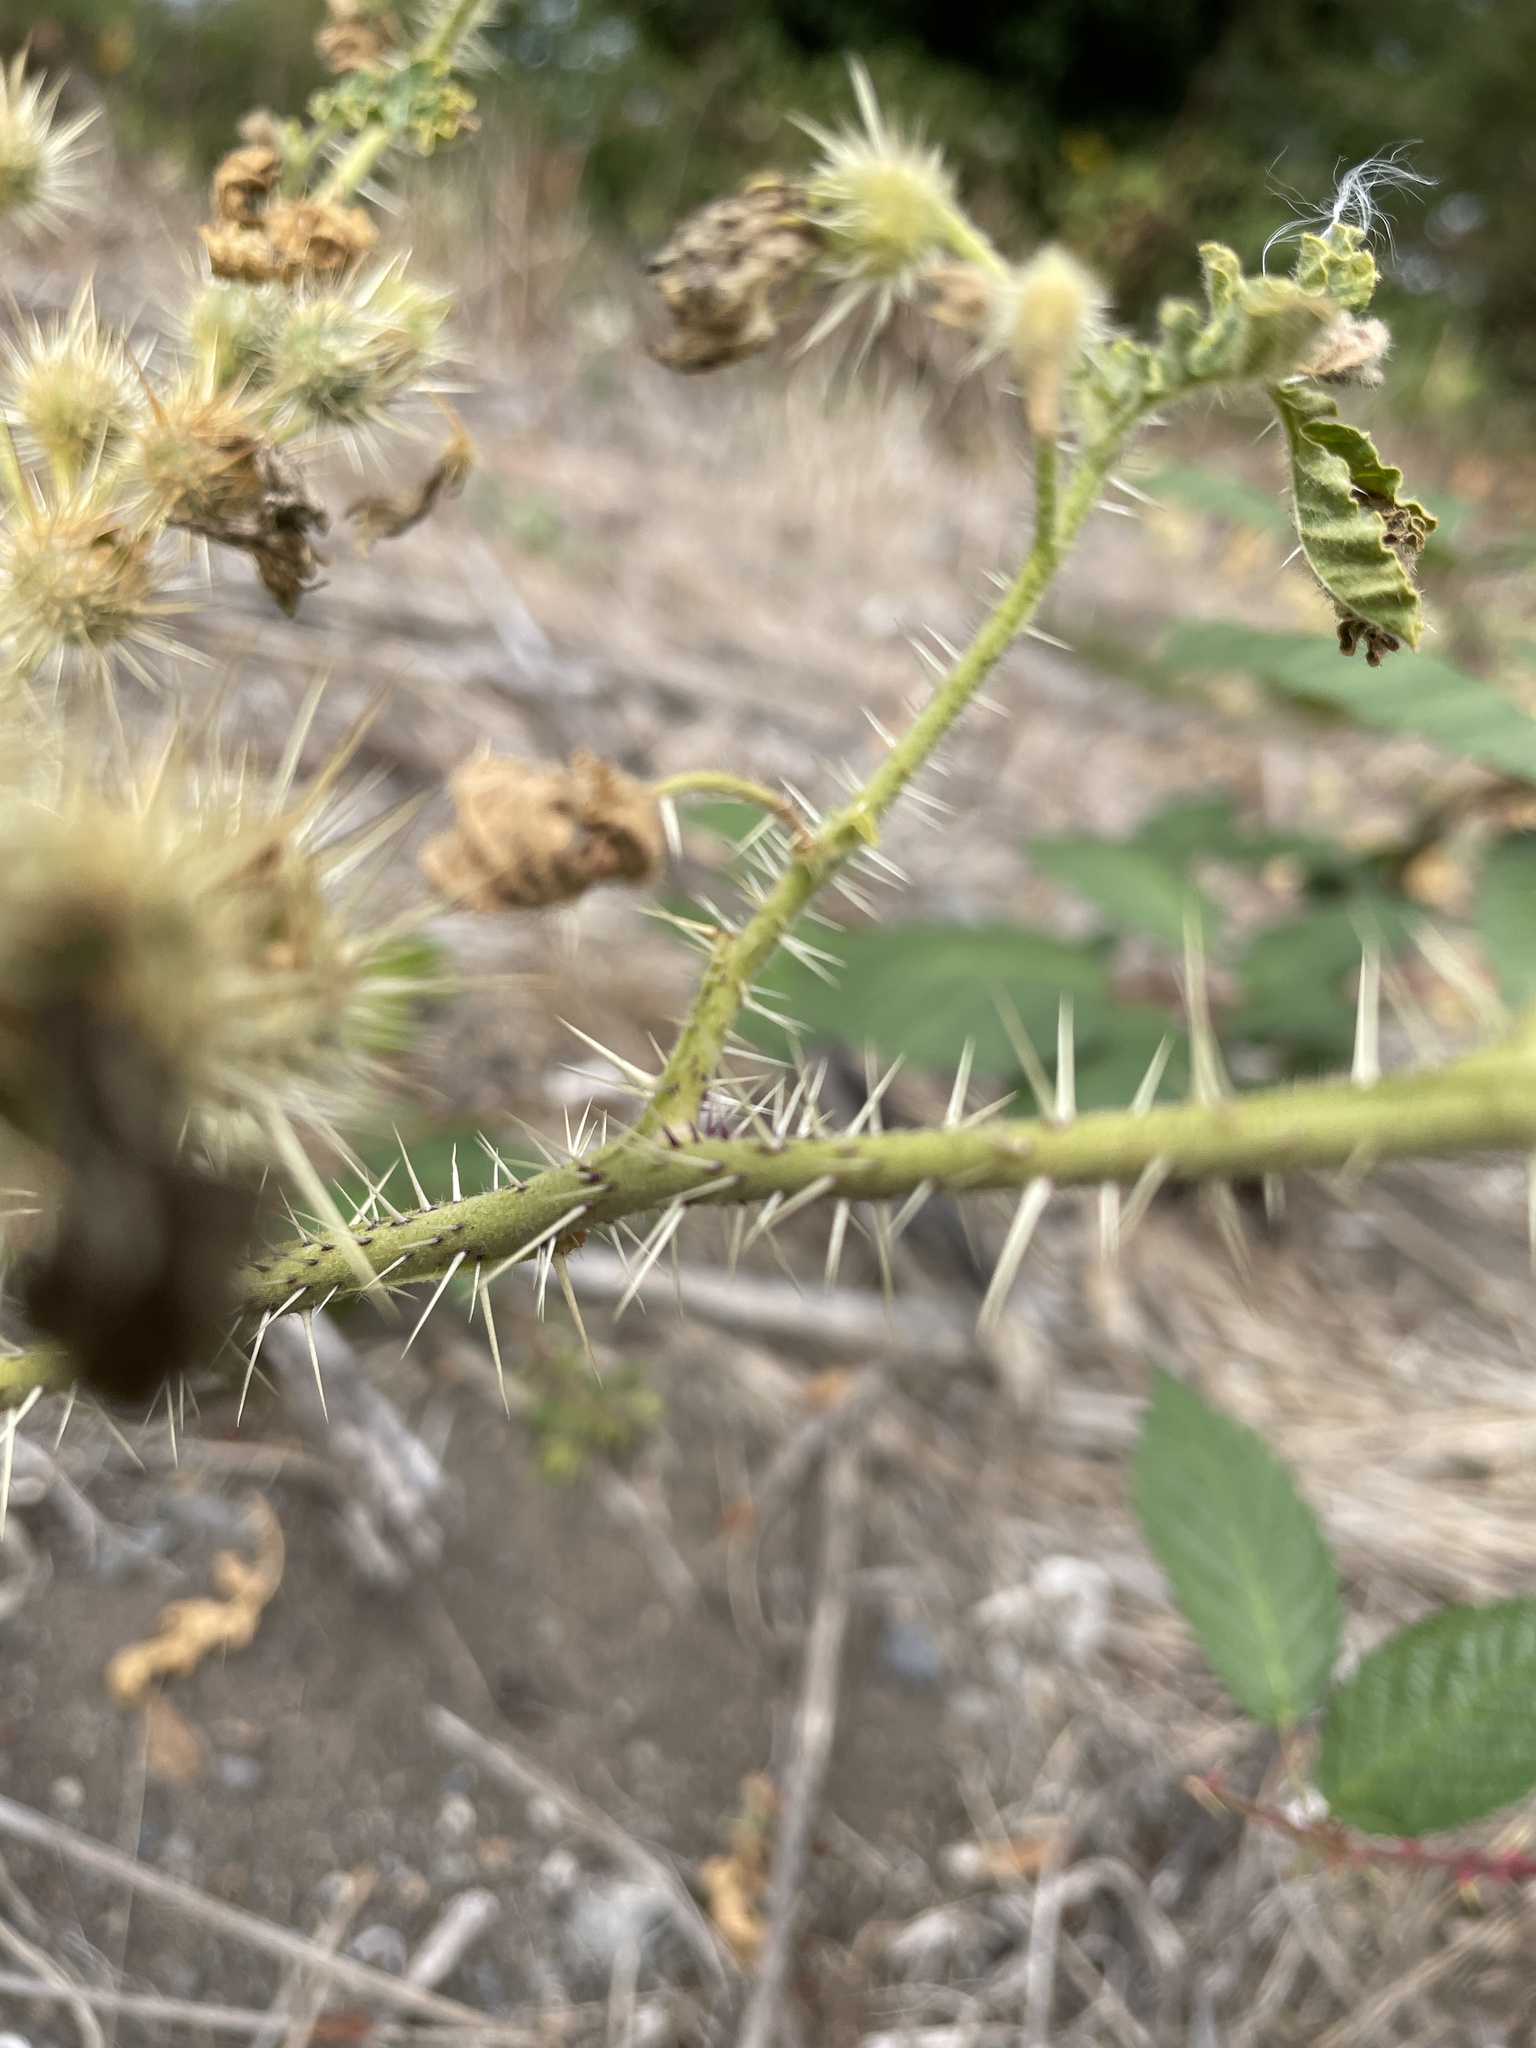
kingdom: Plantae
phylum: Tracheophyta
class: Magnoliopsida
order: Solanales
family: Solanaceae
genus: Solanum
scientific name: Solanum angustifolium
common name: Buffalobur nightshade
